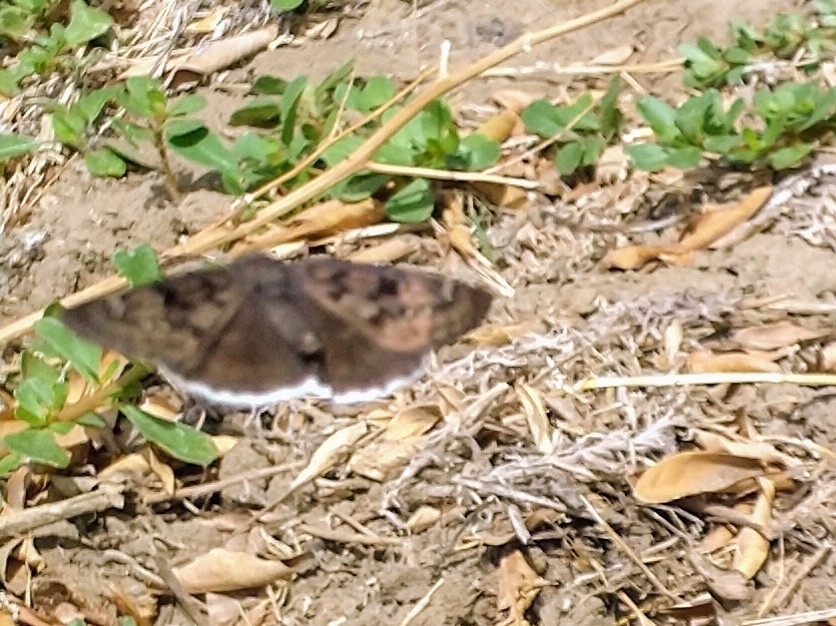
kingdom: Animalia
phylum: Arthropoda
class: Insecta
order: Lepidoptera
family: Hesperiidae
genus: Erynnis
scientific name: Erynnis tristis
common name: Mournful duskywing
